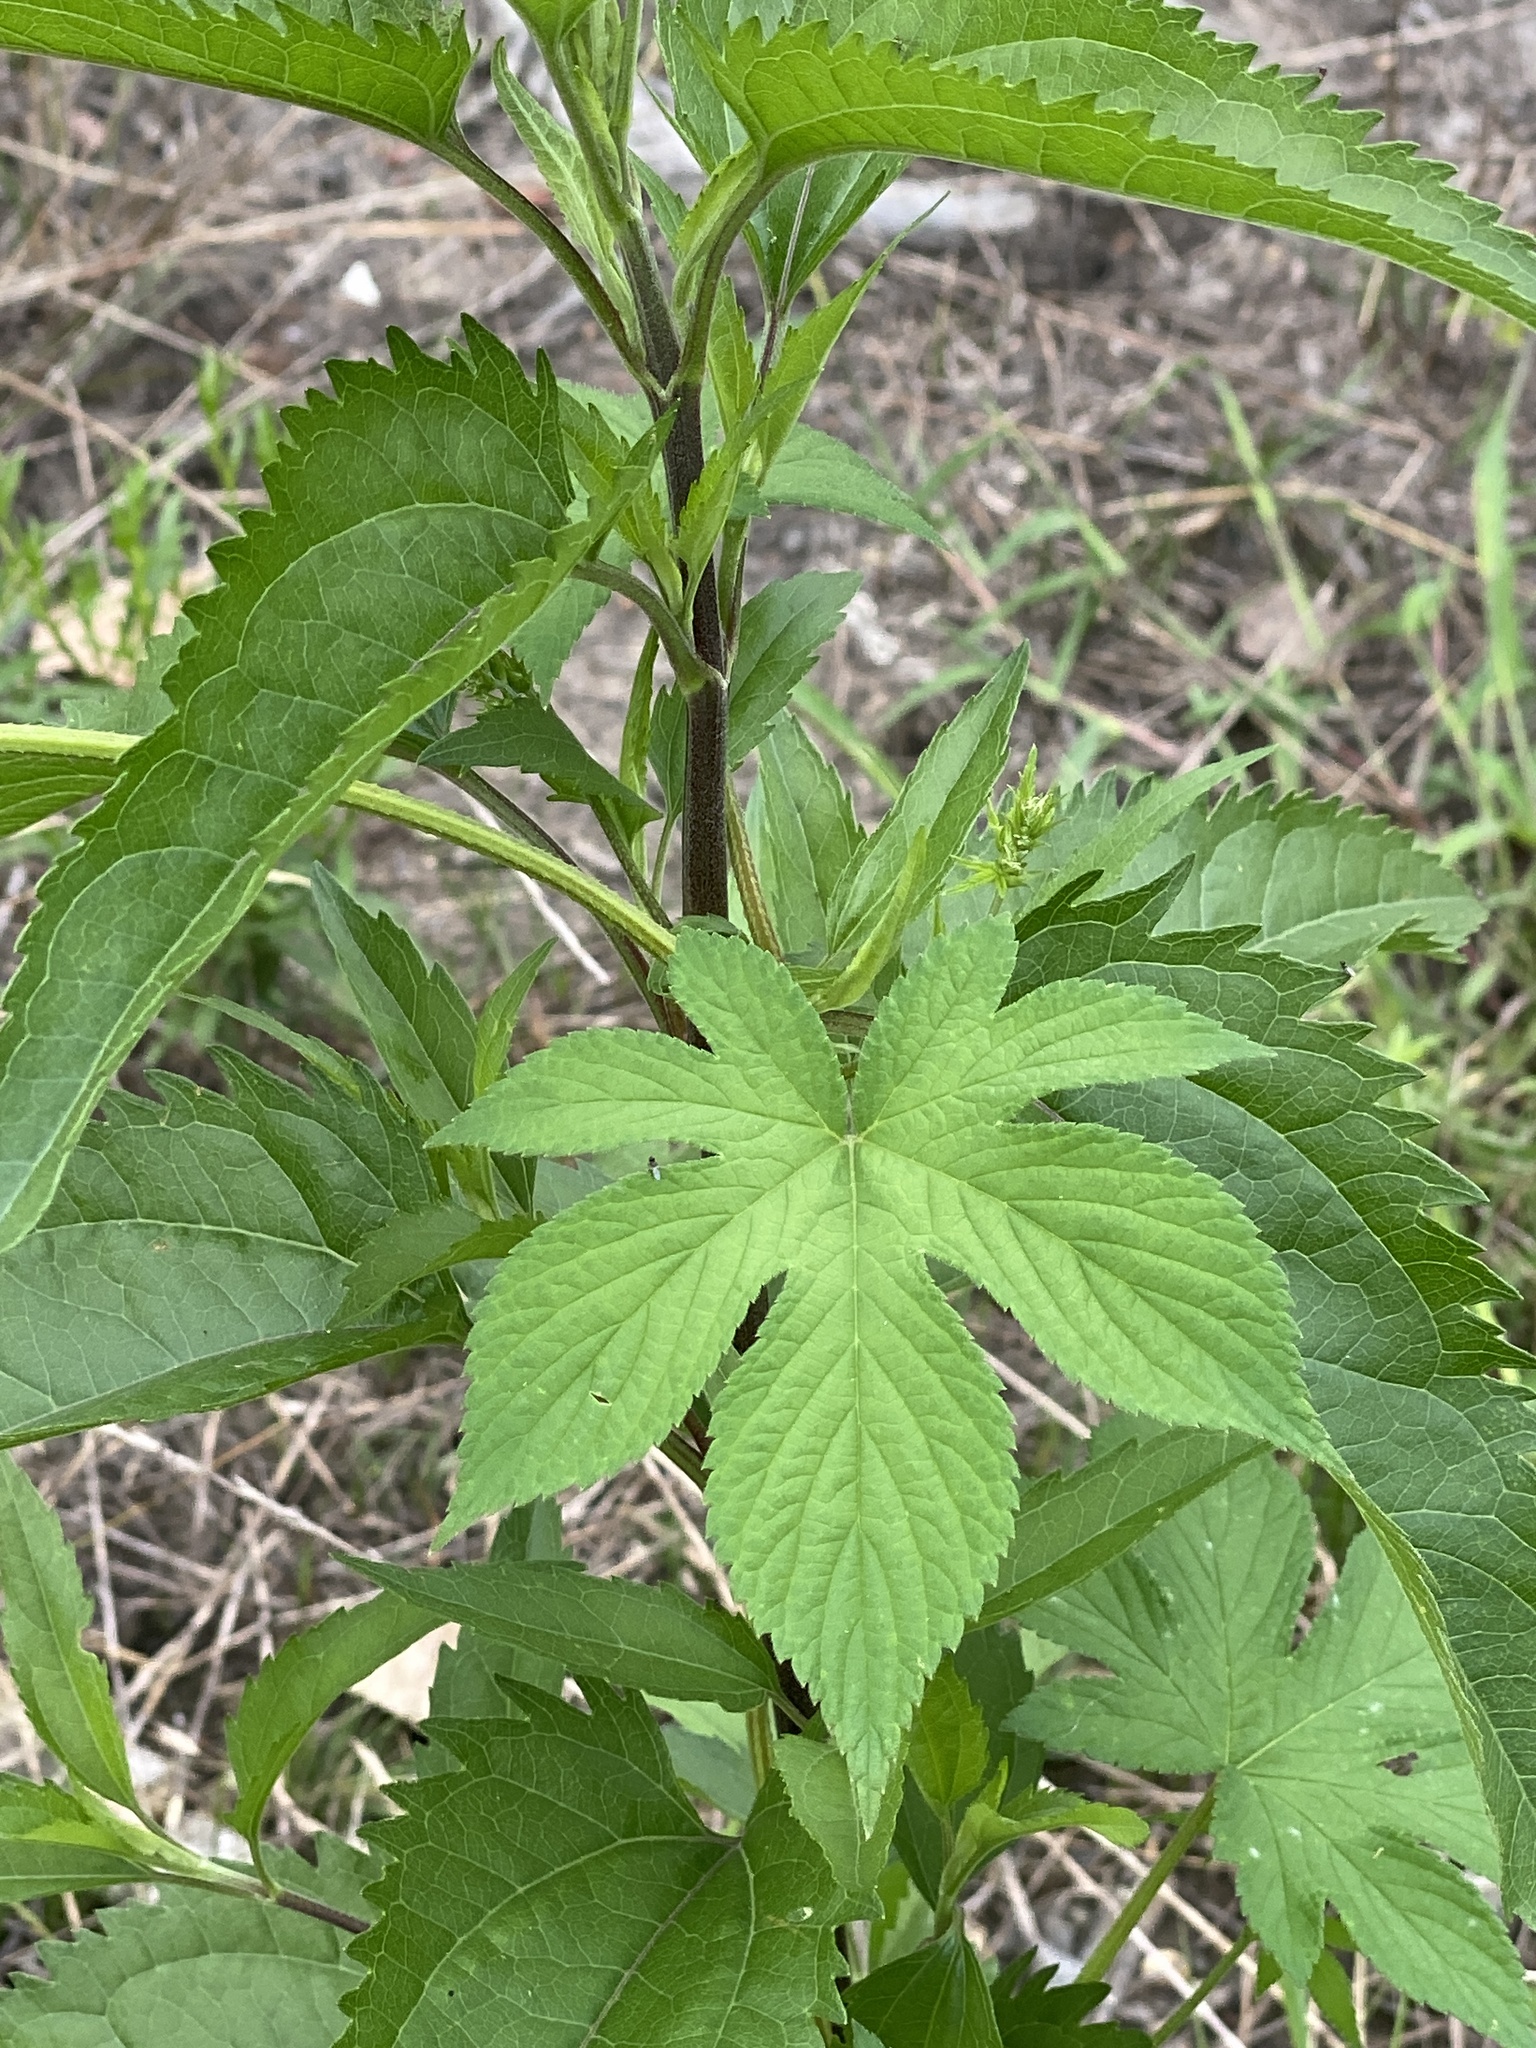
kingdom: Plantae
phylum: Tracheophyta
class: Magnoliopsida
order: Rosales
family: Cannabaceae
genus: Humulus
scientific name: Humulus scandens
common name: Japanese hop
